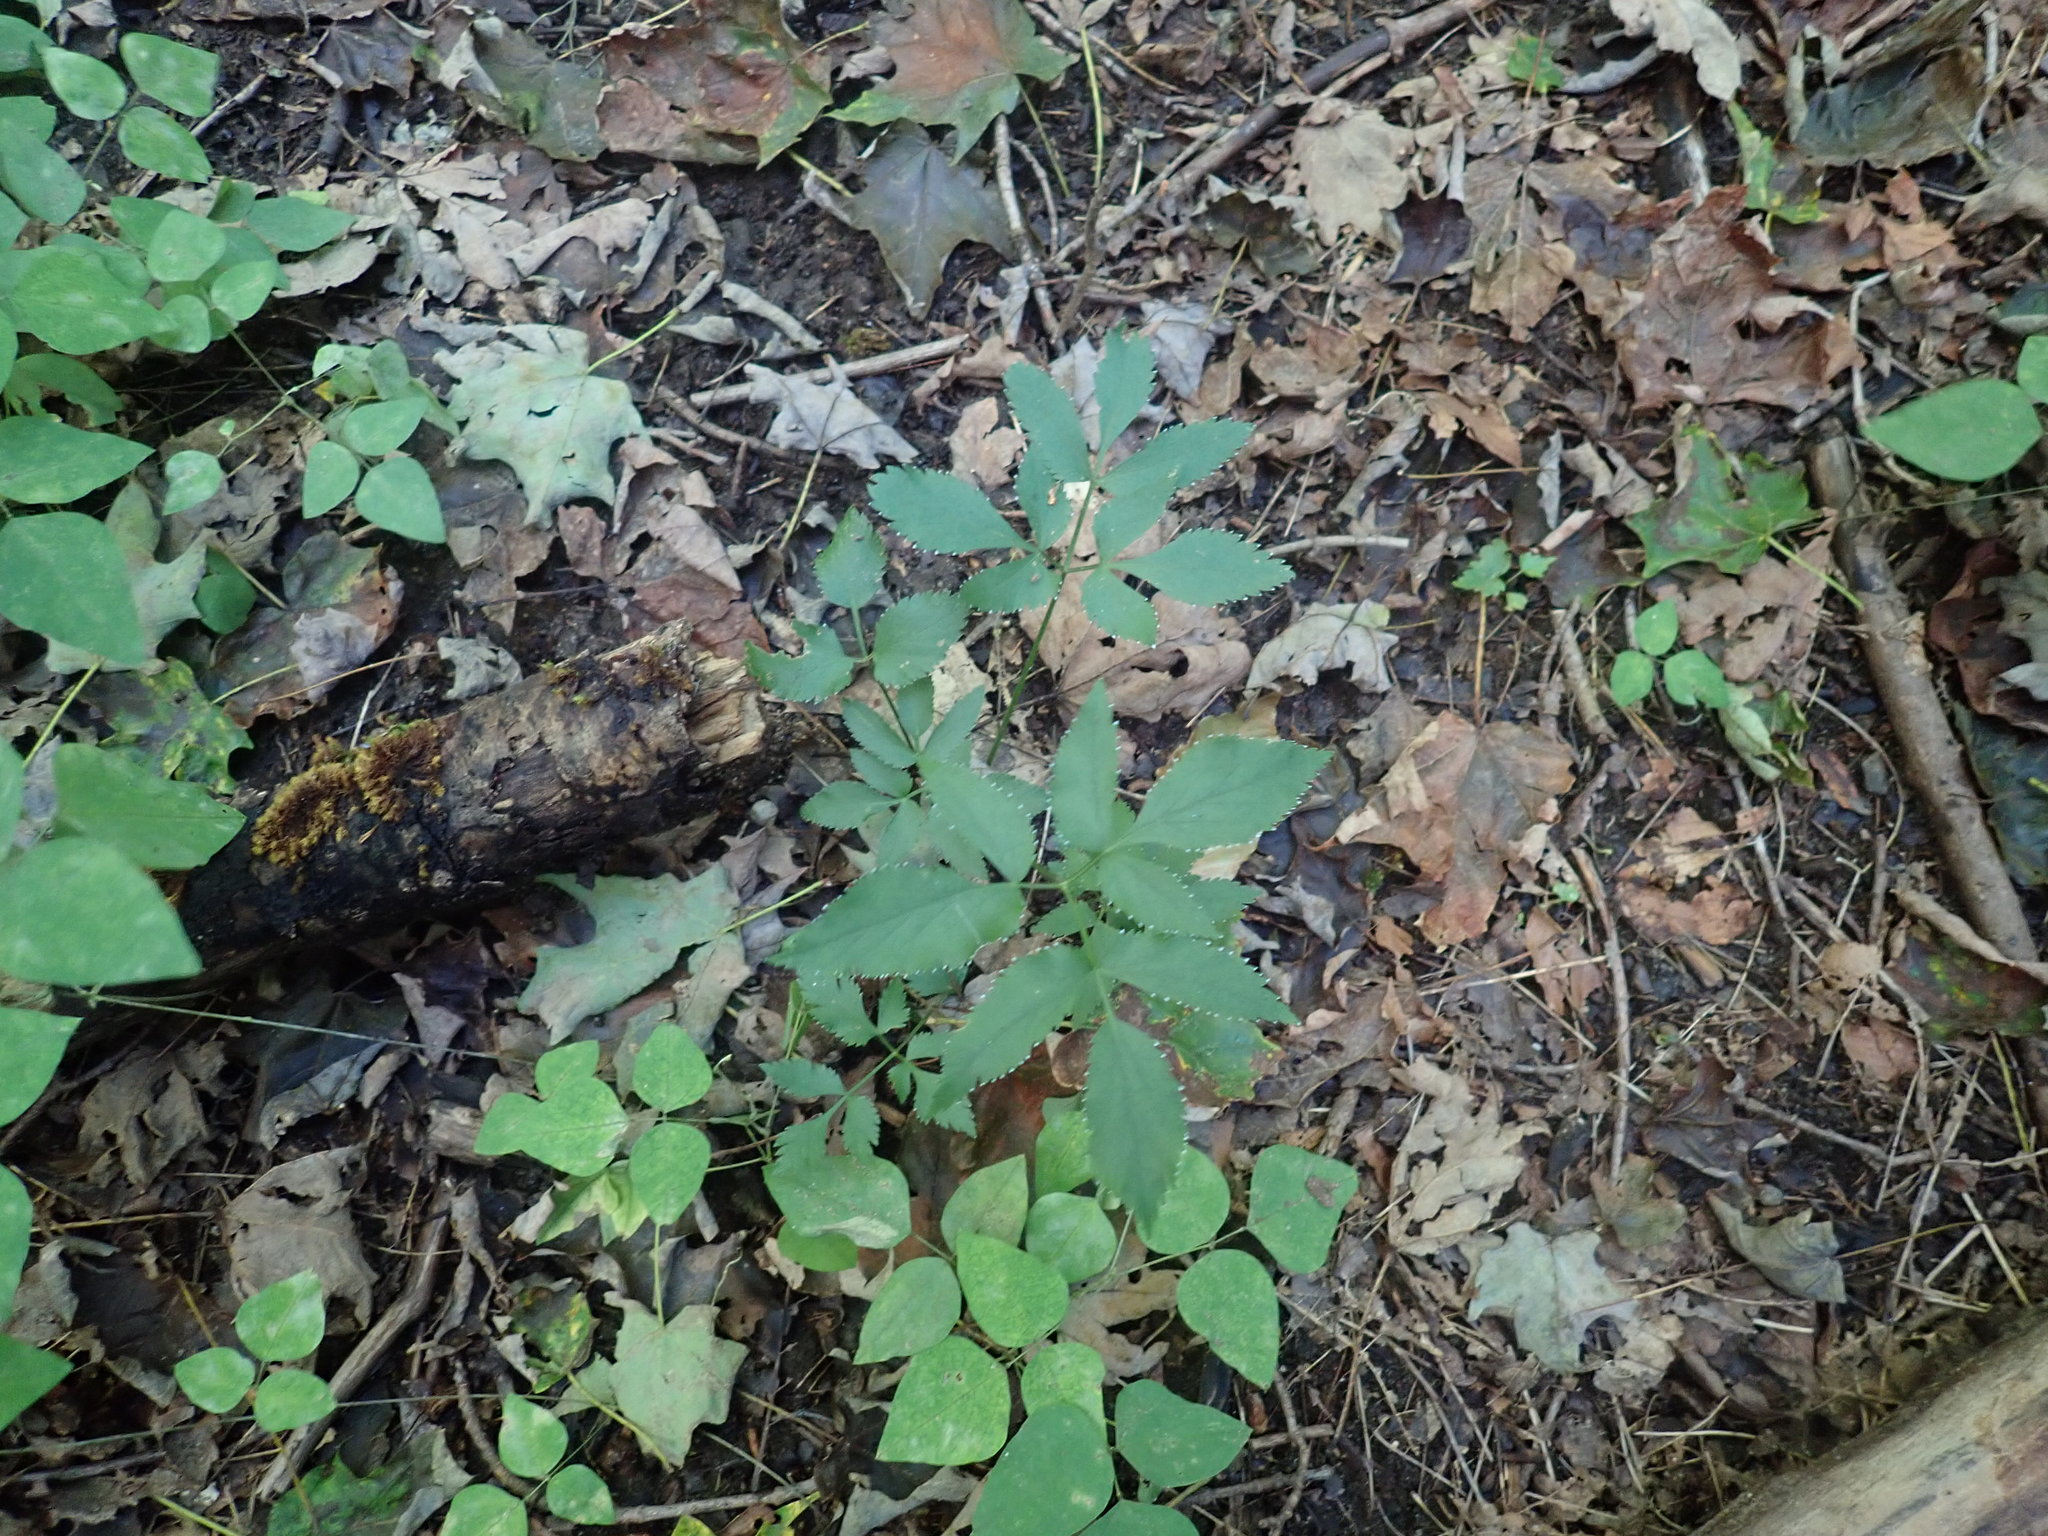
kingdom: Plantae
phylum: Tracheophyta
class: Magnoliopsida
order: Apiales
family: Apiaceae
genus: Zizia
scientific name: Zizia aurea
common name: Golden alexanders
